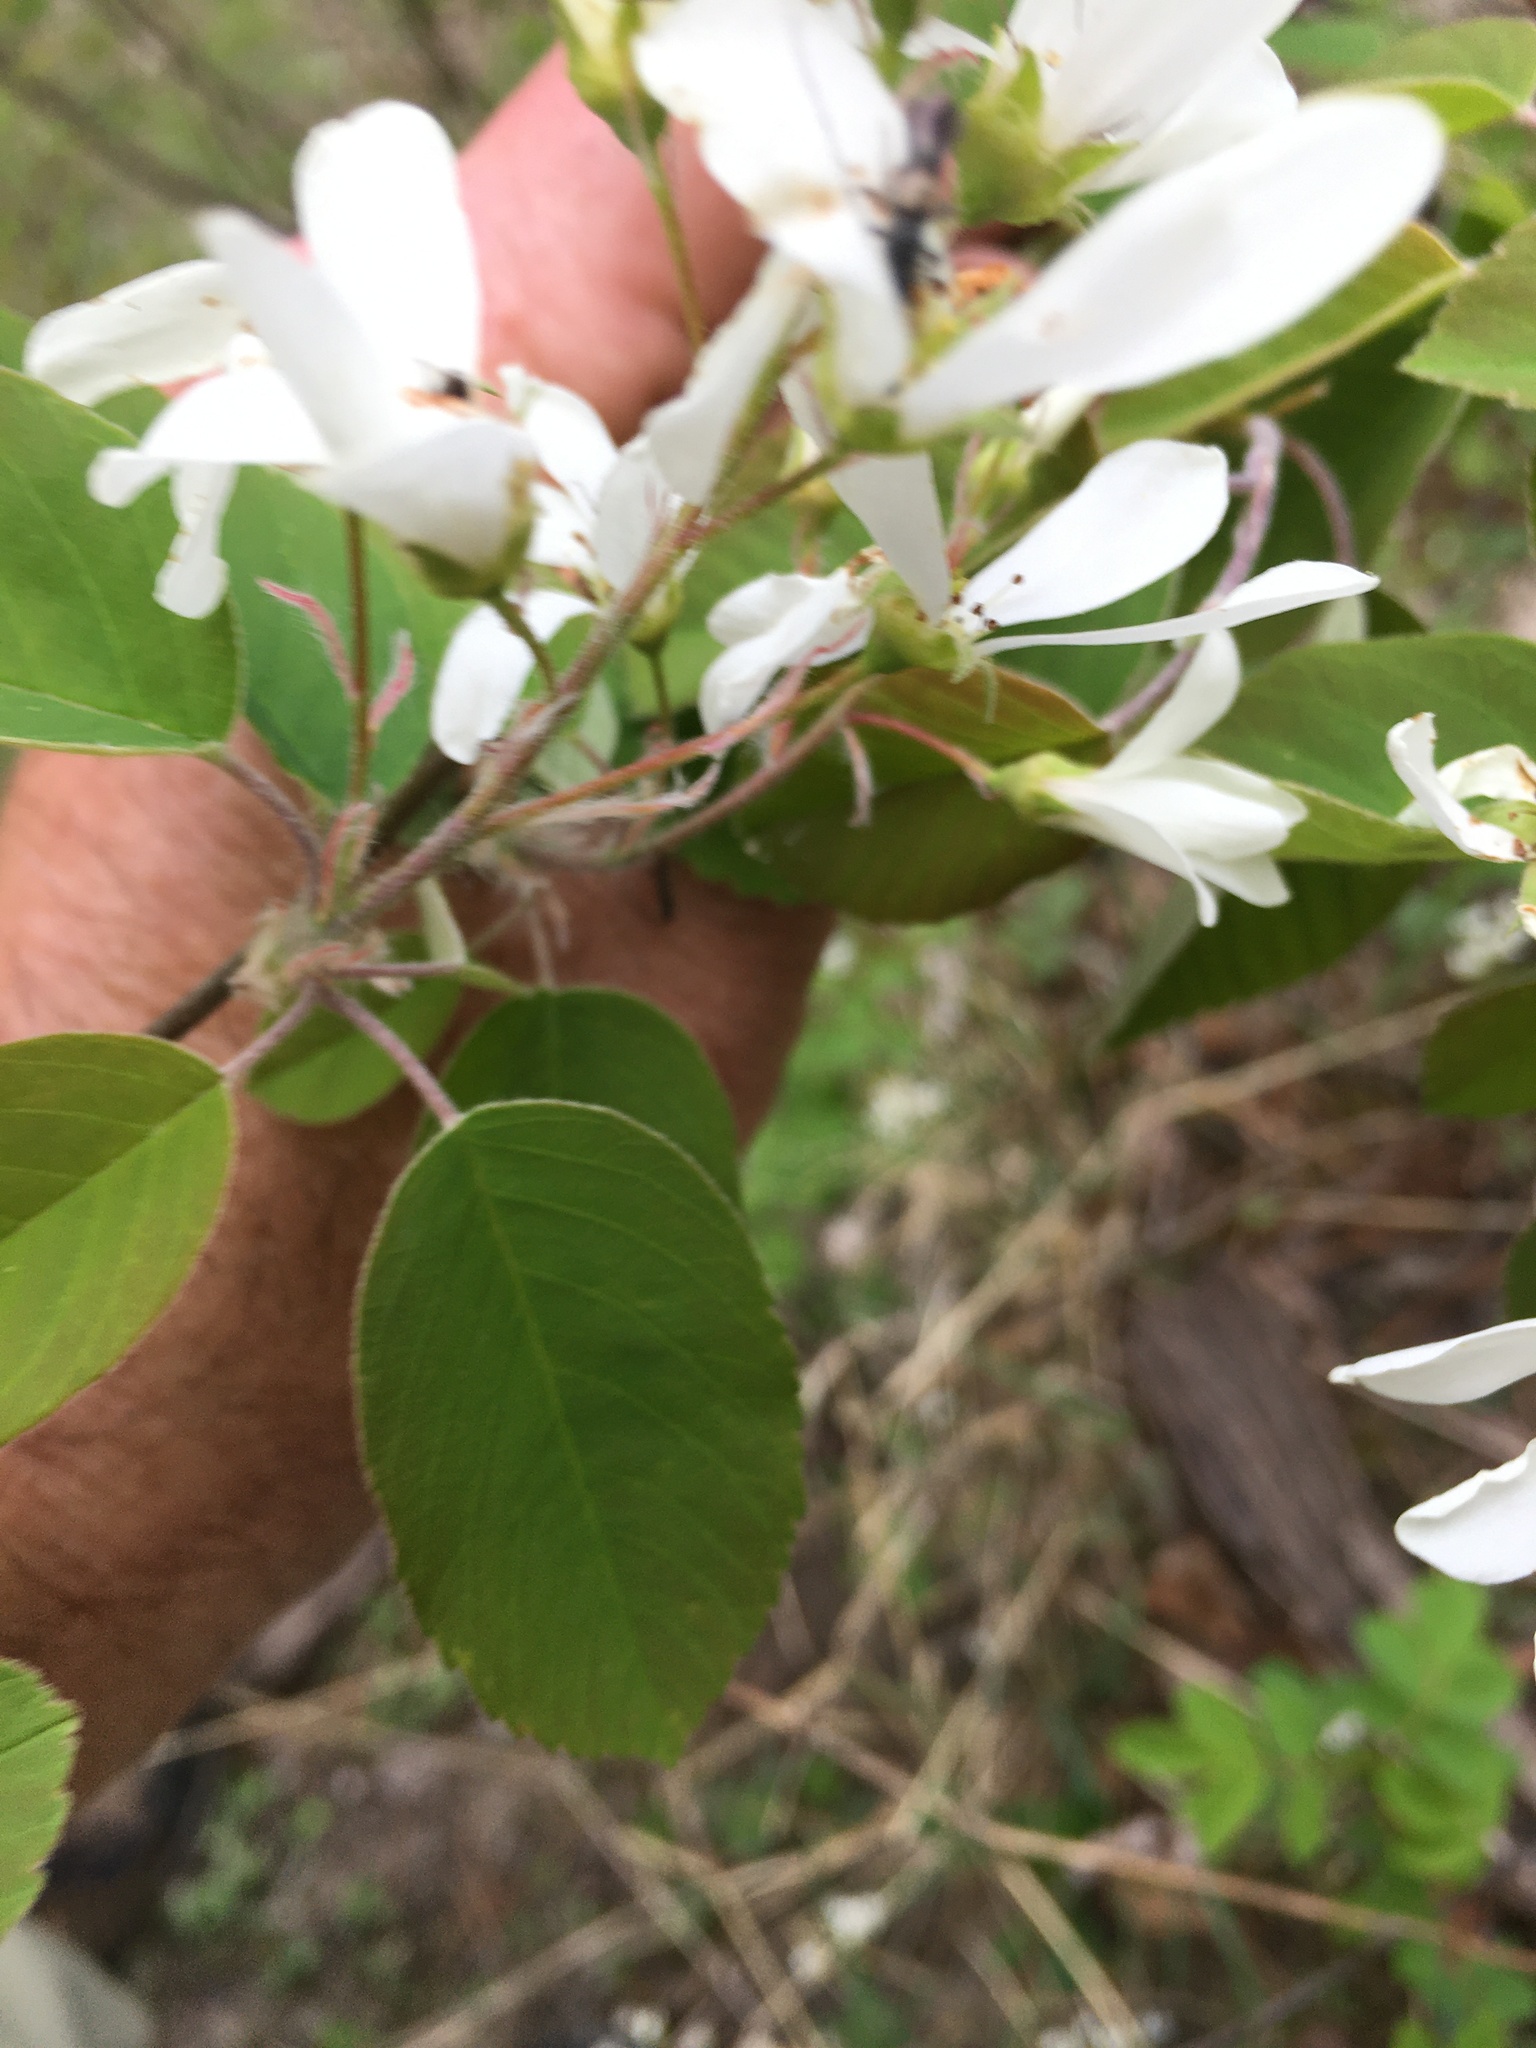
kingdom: Plantae
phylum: Tracheophyta
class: Magnoliopsida
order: Rosales
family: Rosaceae
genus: Amelanchier
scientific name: Amelanchier sanguinea
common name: Huron serviceberry
